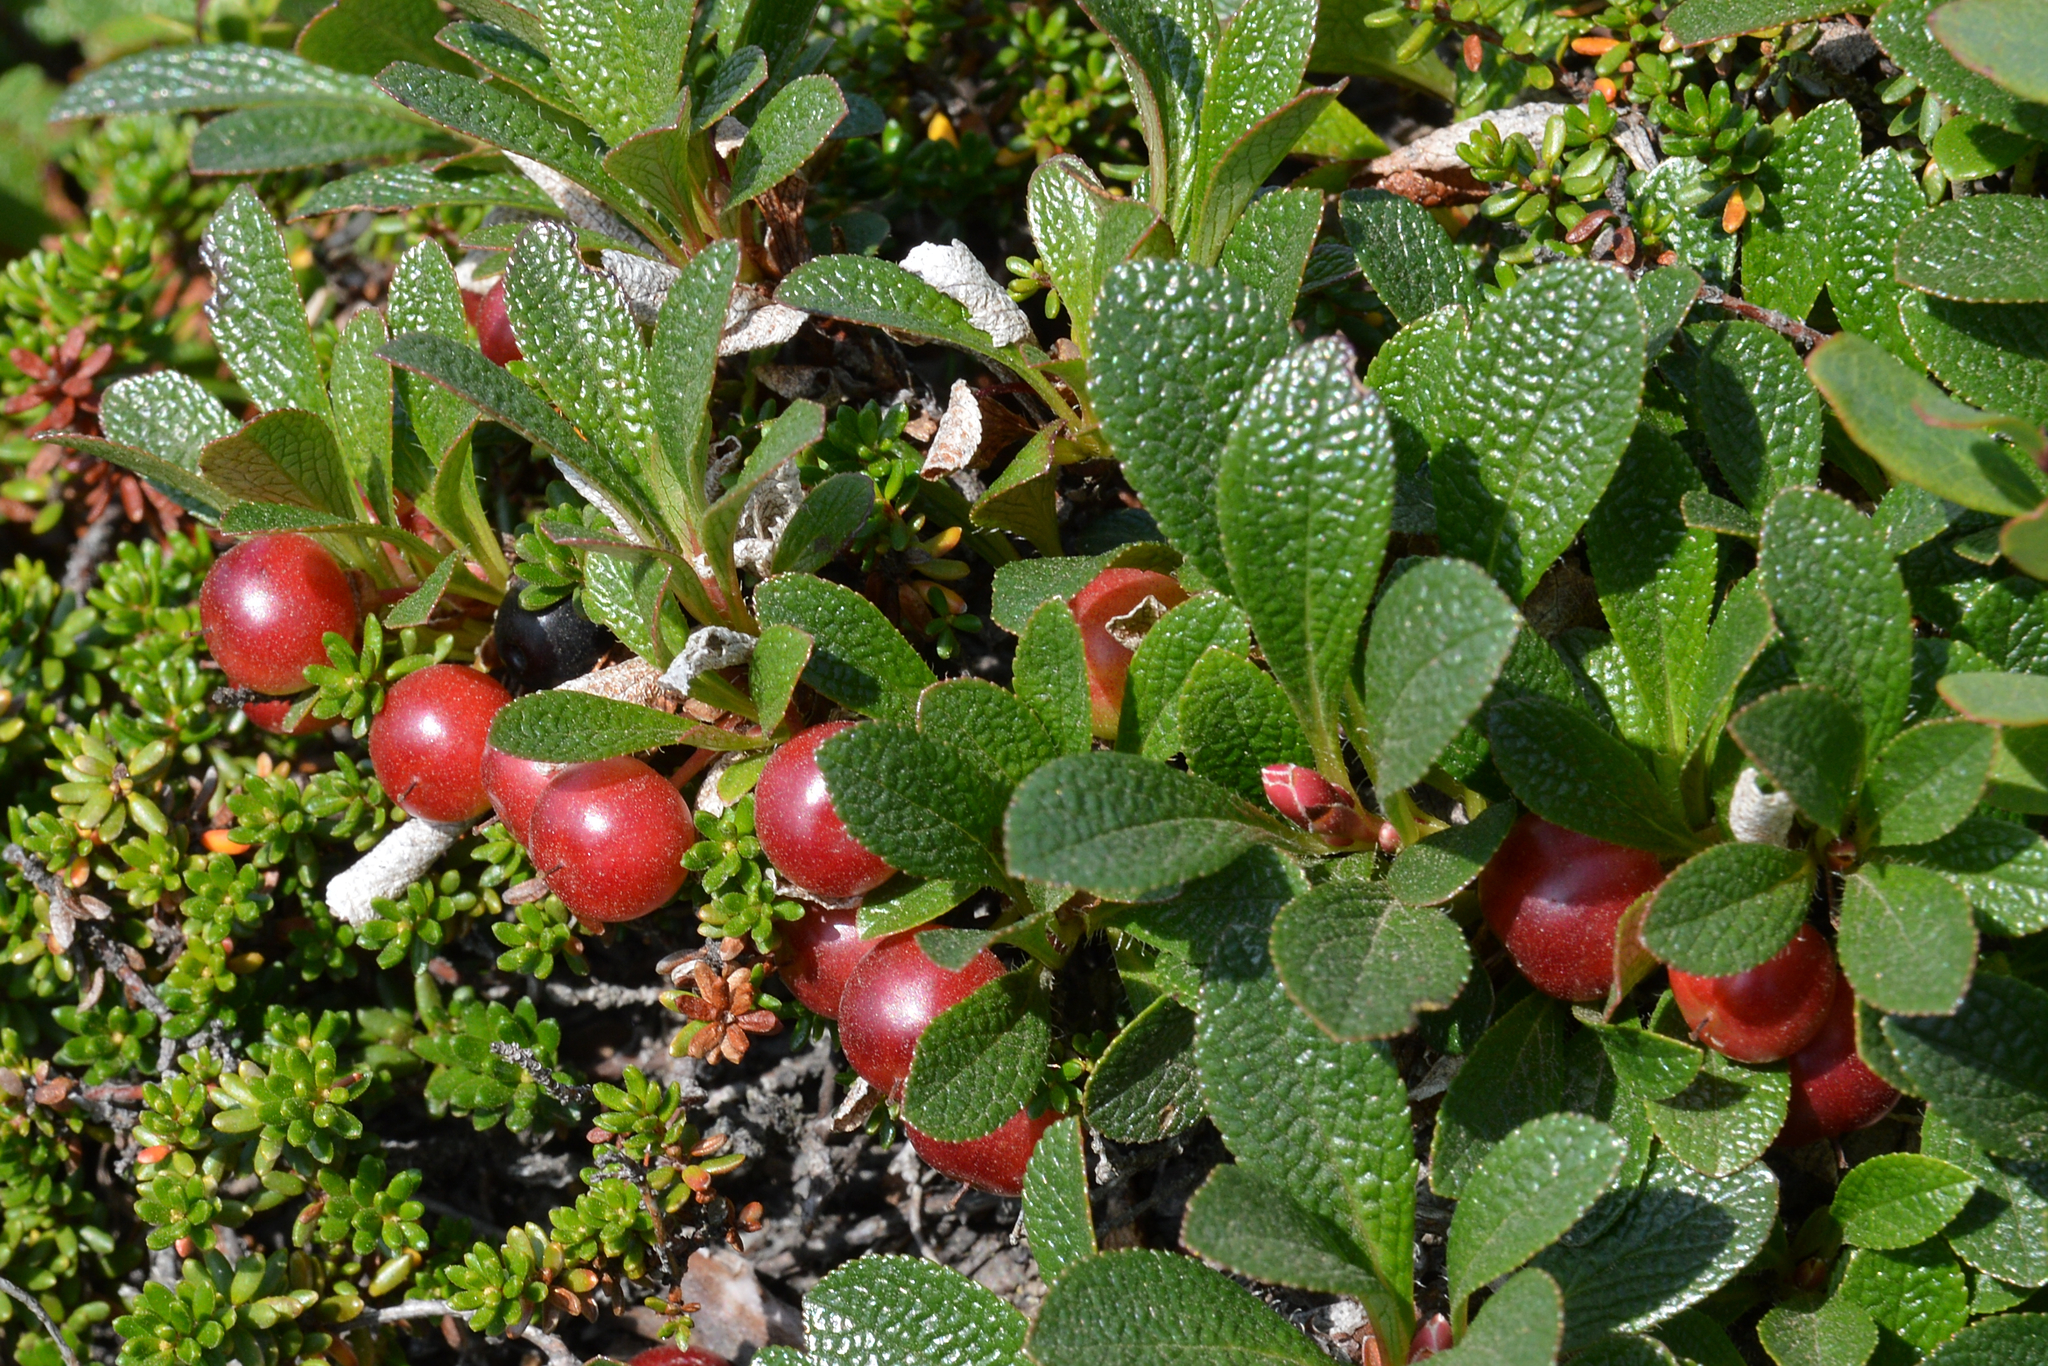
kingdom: Plantae
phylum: Tracheophyta
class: Magnoliopsida
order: Ericales
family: Ericaceae
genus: Arctostaphylos
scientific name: Arctostaphylos alpinus
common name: Alpine bearberry
